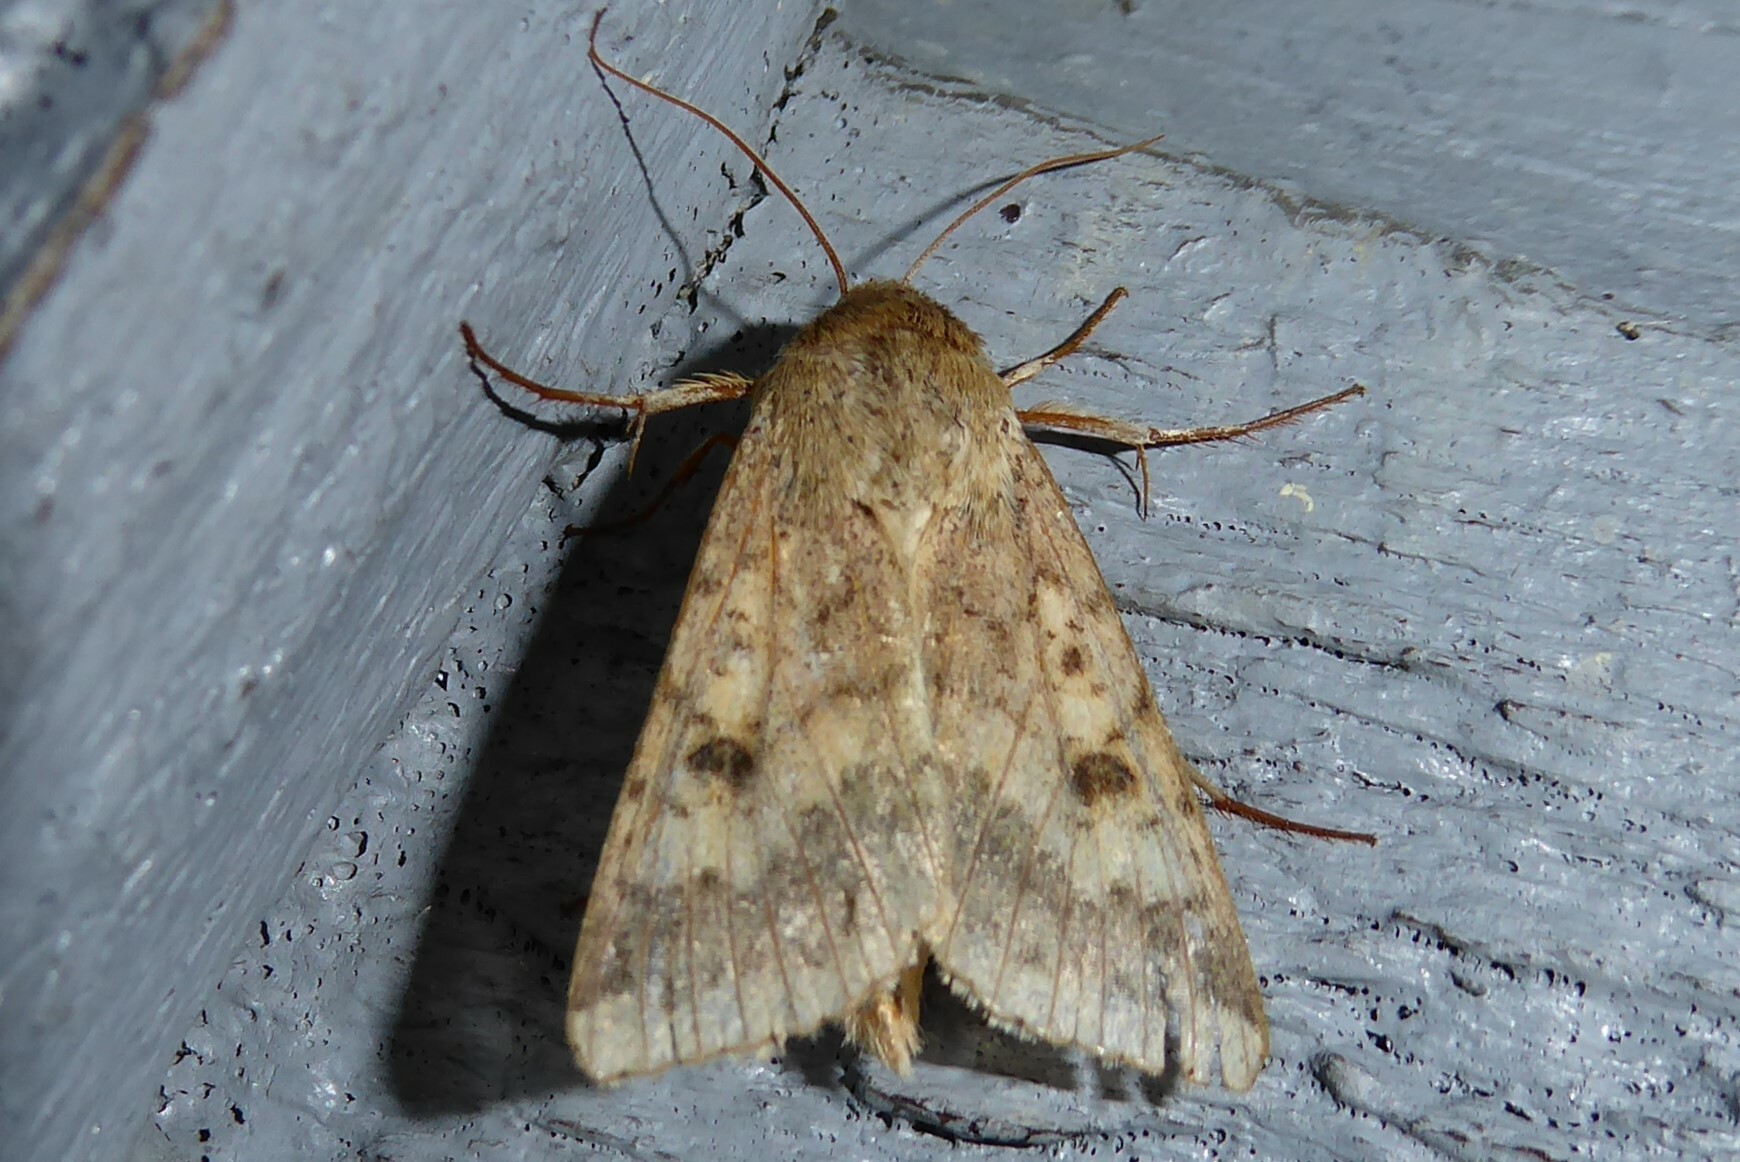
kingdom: Animalia
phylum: Arthropoda
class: Insecta
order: Lepidoptera
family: Noctuidae
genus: Helicoverpa
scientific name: Helicoverpa armigera
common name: Cotton bollworm
